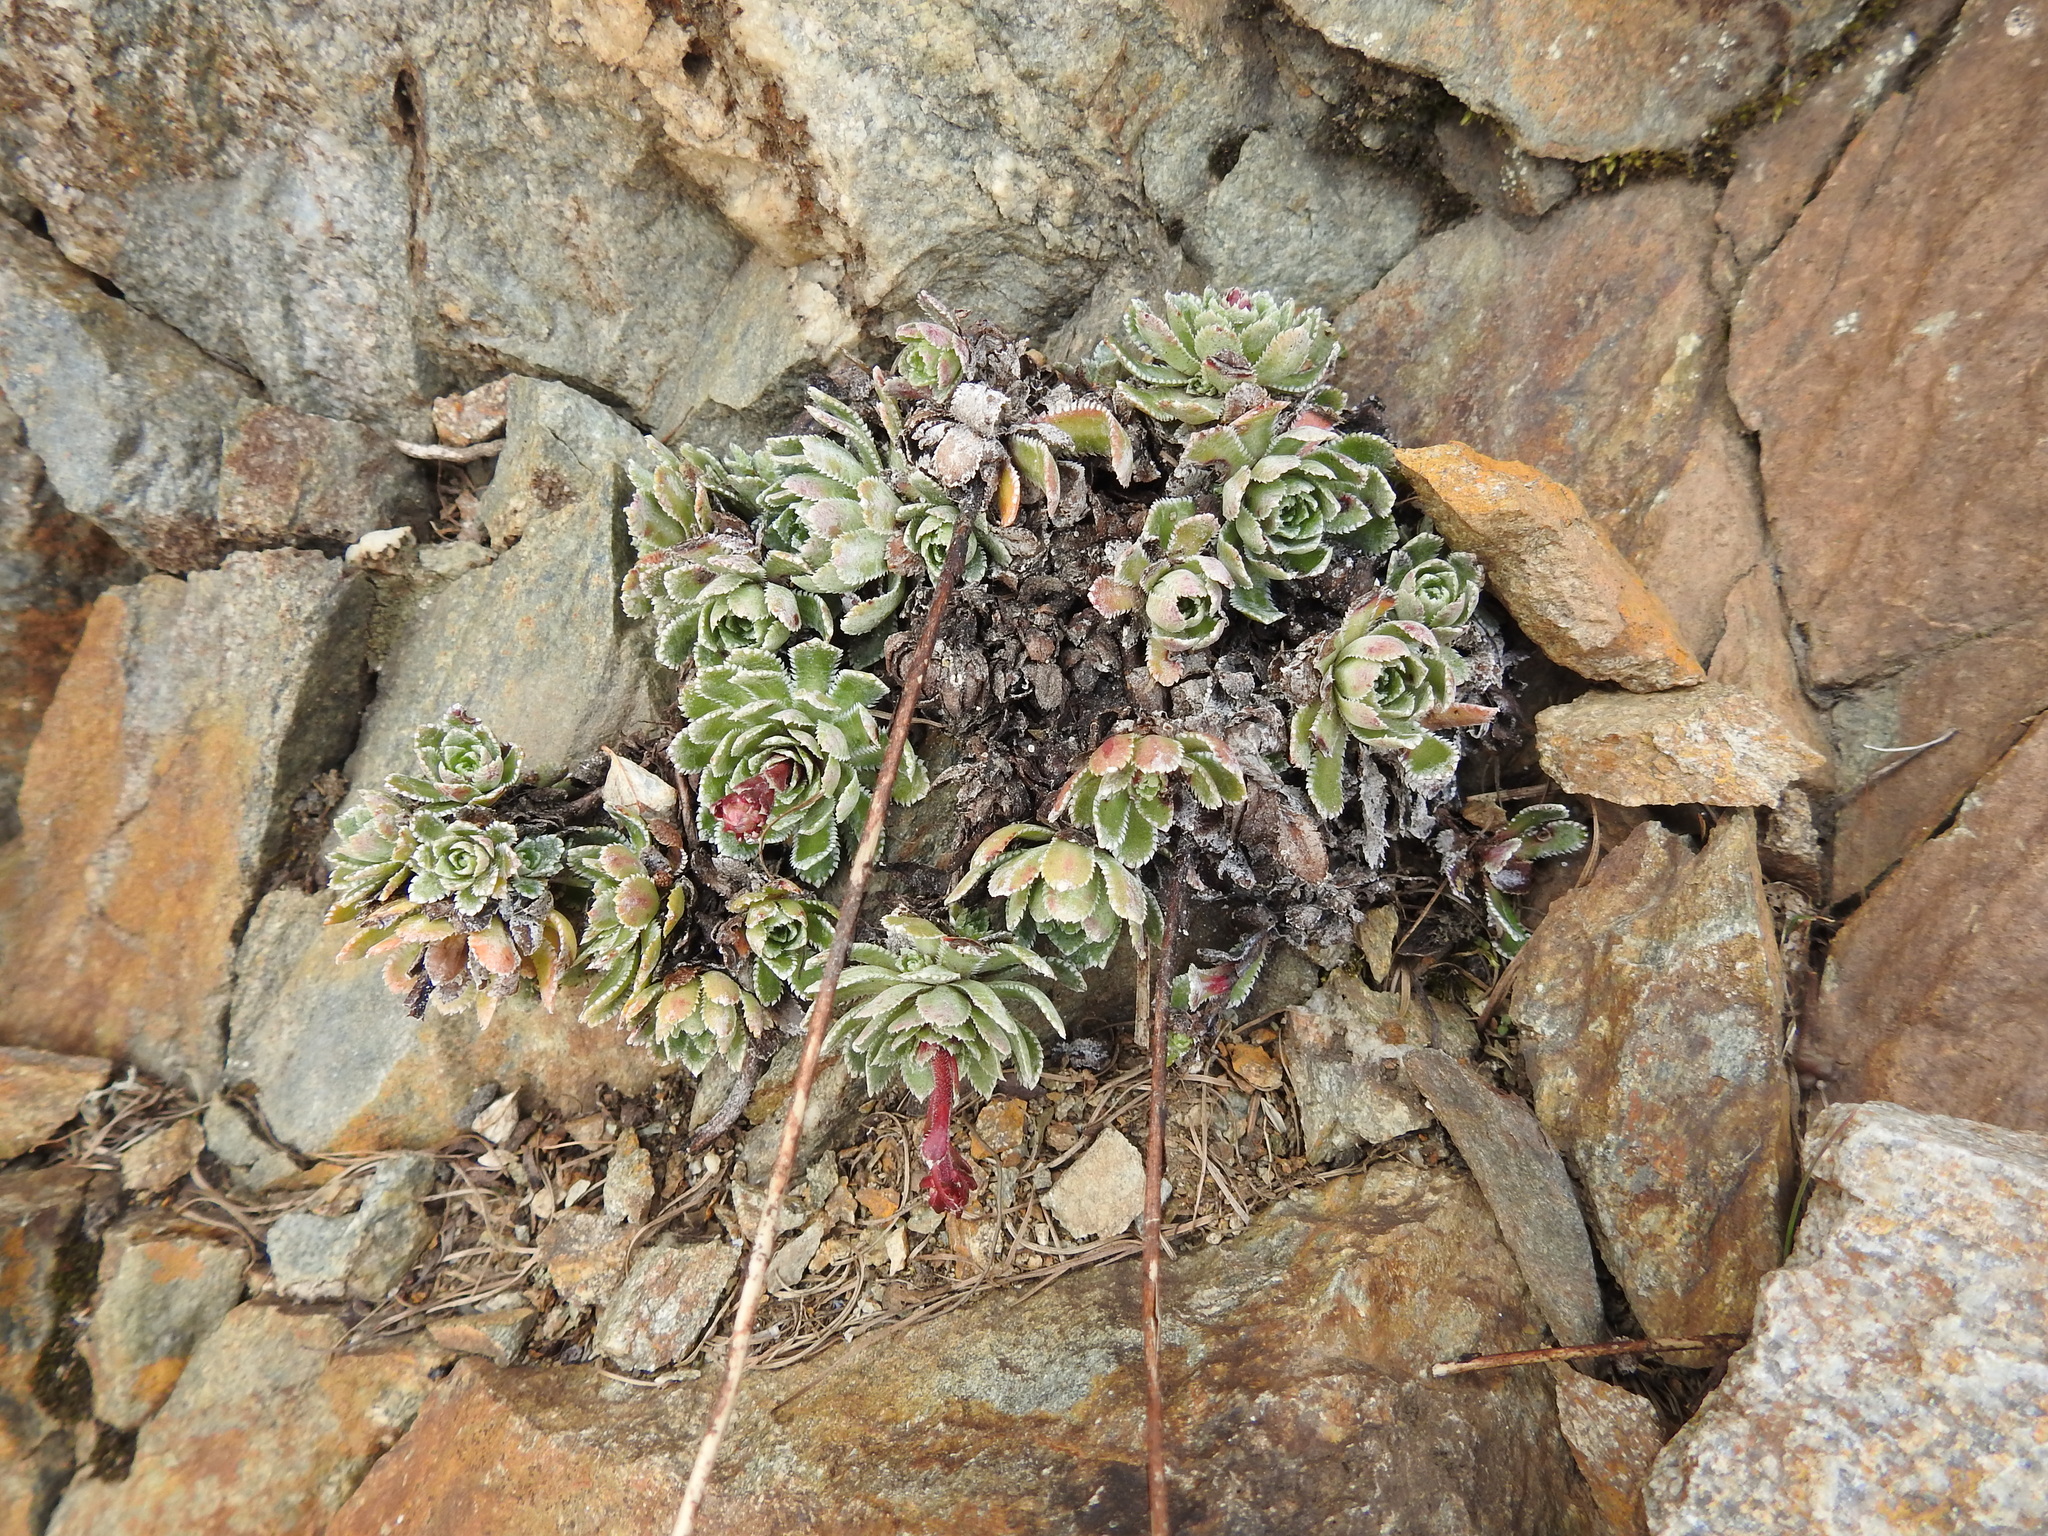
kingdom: Plantae
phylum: Tracheophyta
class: Magnoliopsida
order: Saxifragales
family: Saxifragaceae
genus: Saxifraga
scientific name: Saxifraga paniculata
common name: Livelong saxifrage
